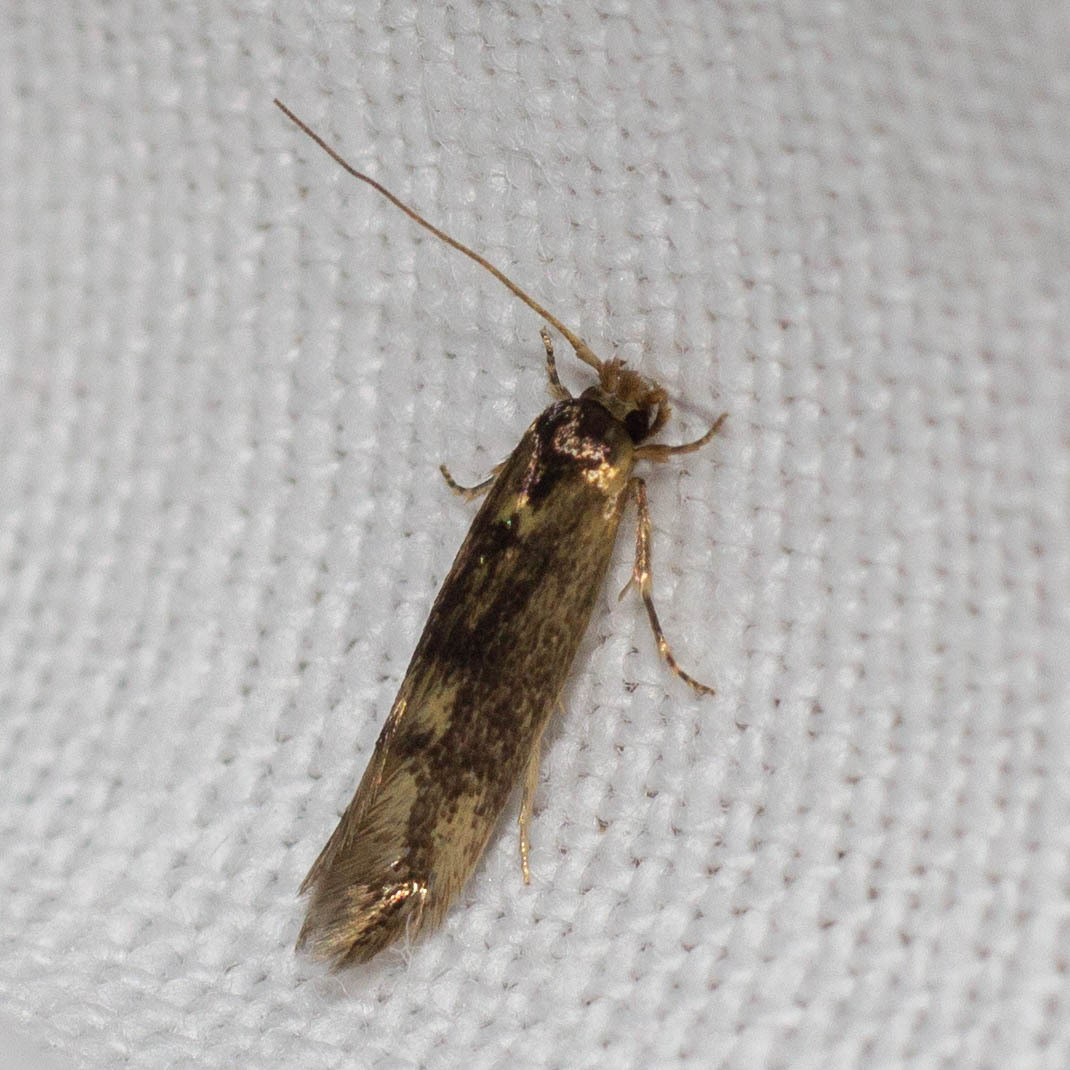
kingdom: Animalia
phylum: Arthropoda
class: Insecta
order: Lepidoptera
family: Tineidae
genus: Opogona
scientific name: Opogona omoscopa
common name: Moth
